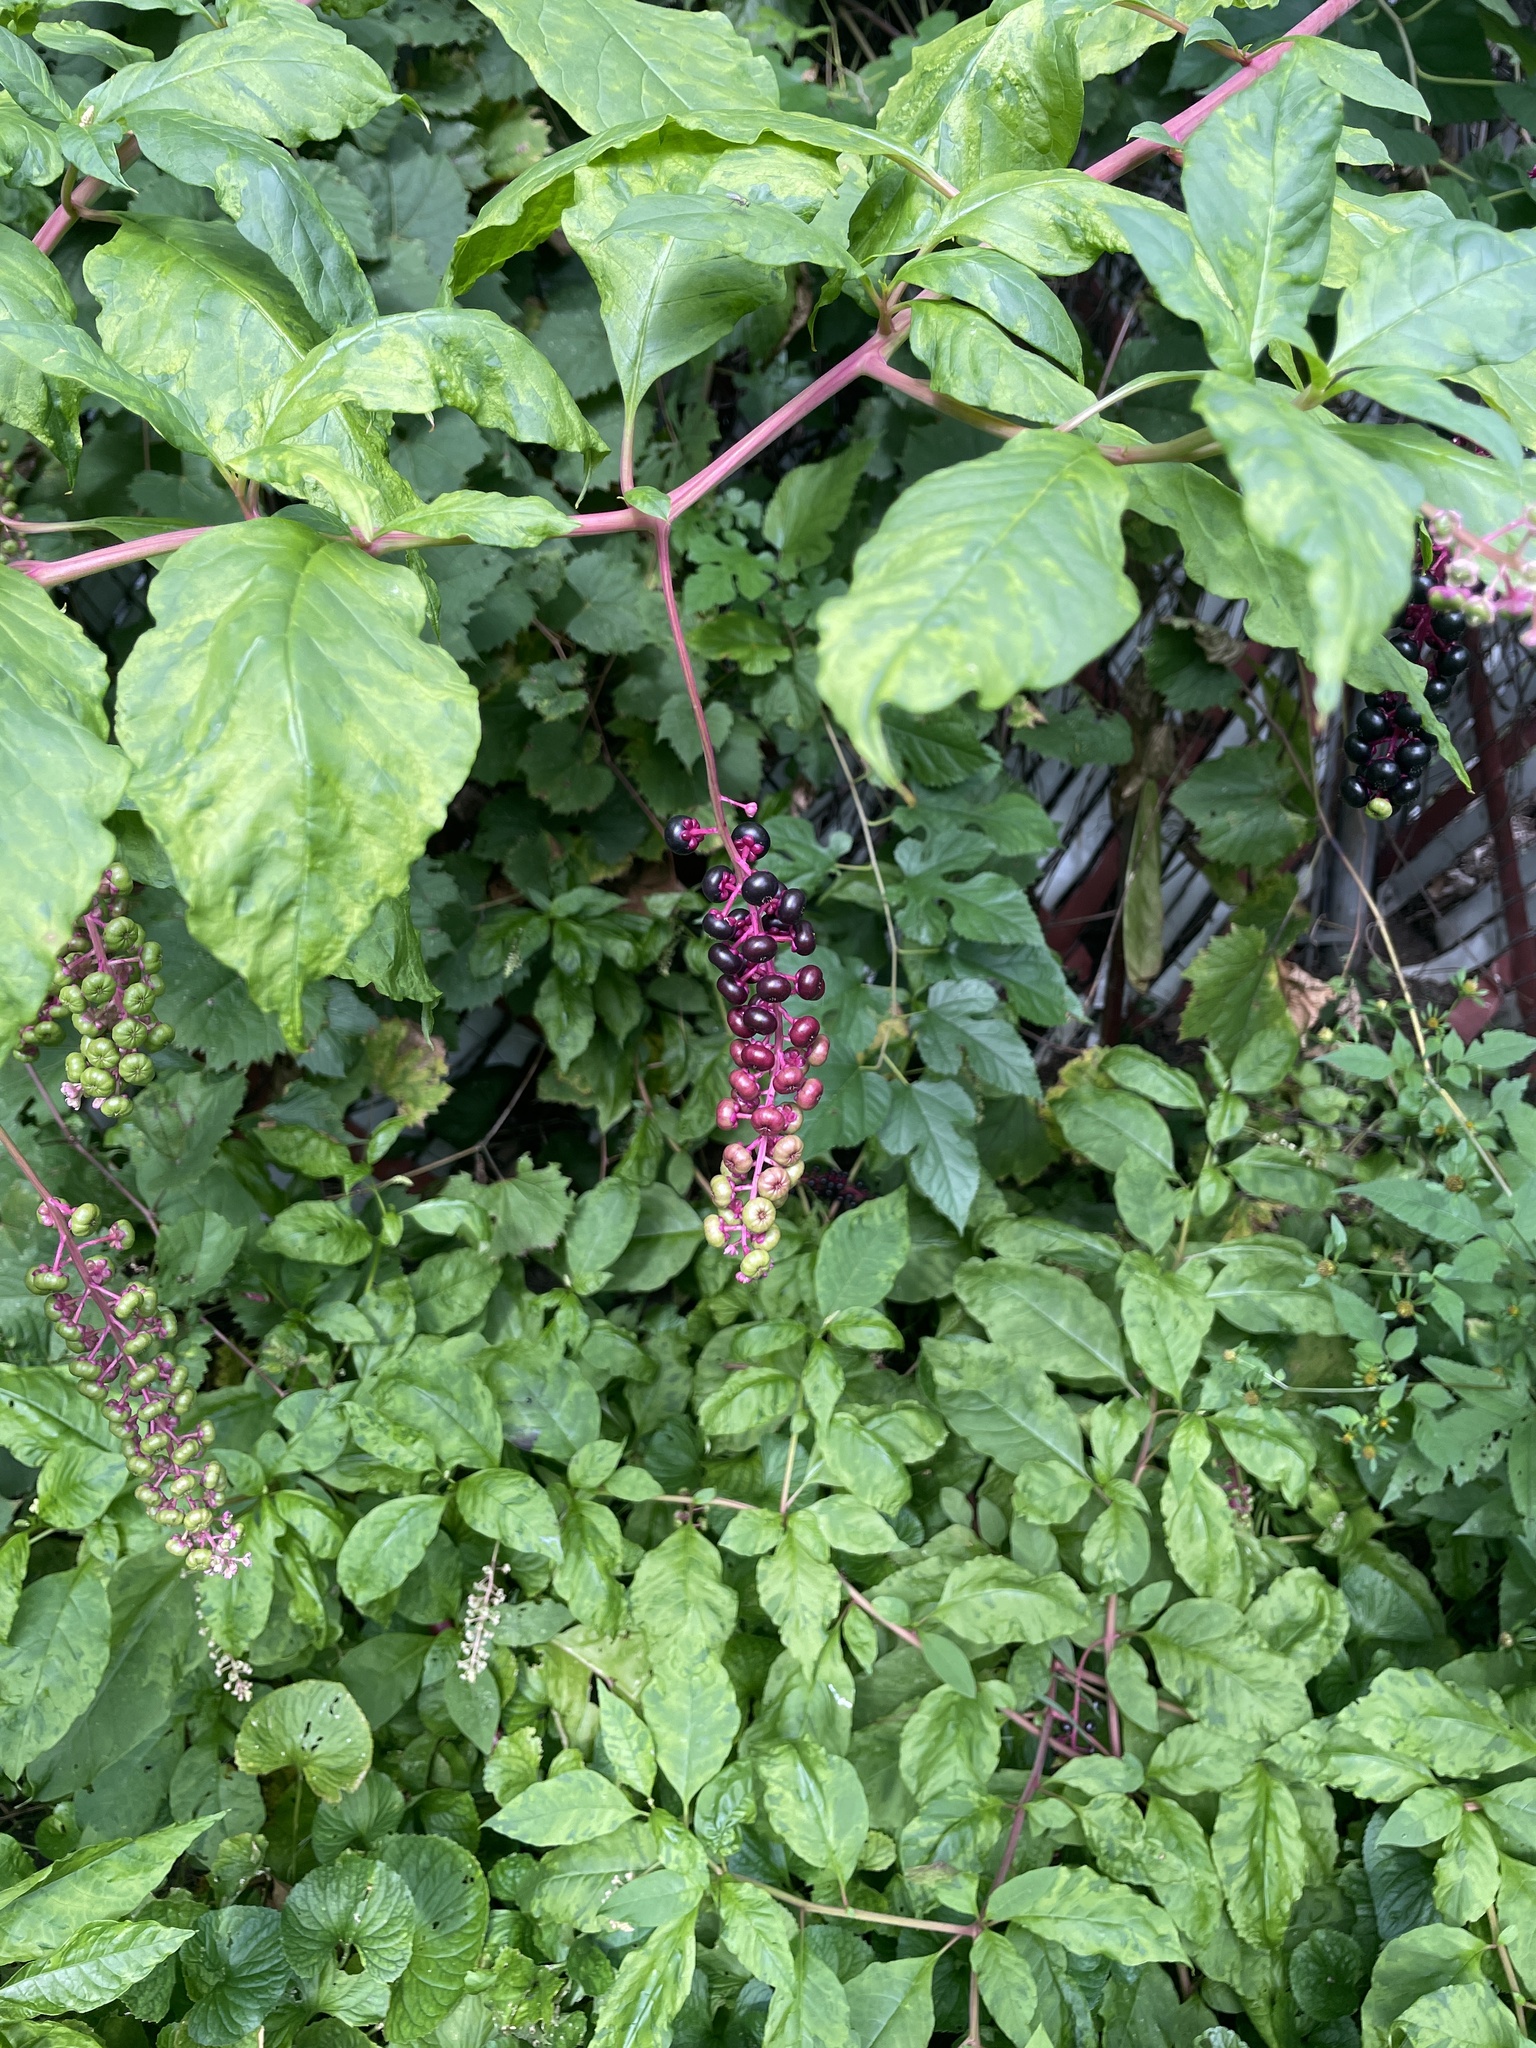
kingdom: Plantae
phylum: Tracheophyta
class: Magnoliopsida
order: Caryophyllales
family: Phytolaccaceae
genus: Phytolacca
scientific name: Phytolacca americana
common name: American pokeweed
